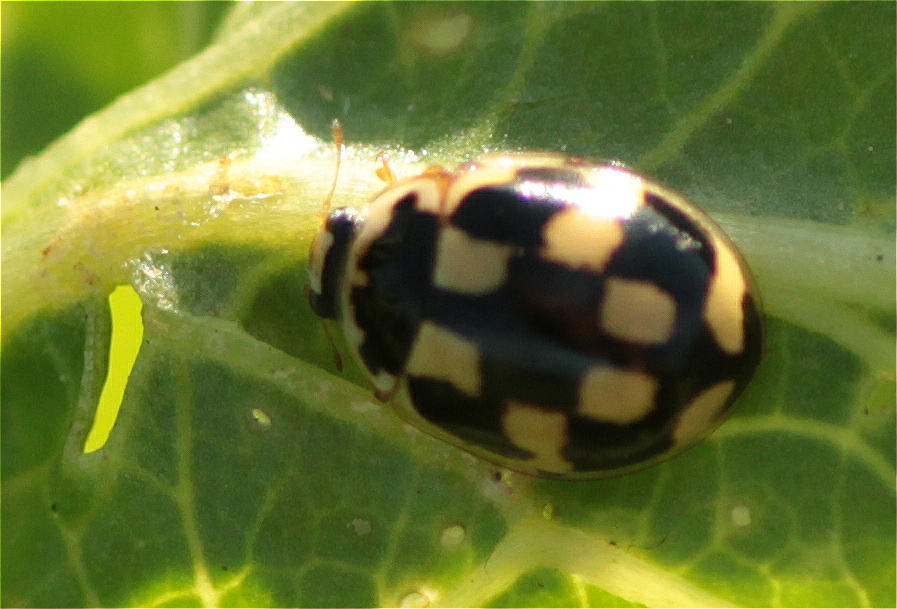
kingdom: Animalia
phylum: Arthropoda
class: Insecta
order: Coleoptera
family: Coccinellidae
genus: Propylaea
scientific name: Propylaea quatuordecimpunctata
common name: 14-spotted ladybird beetle
